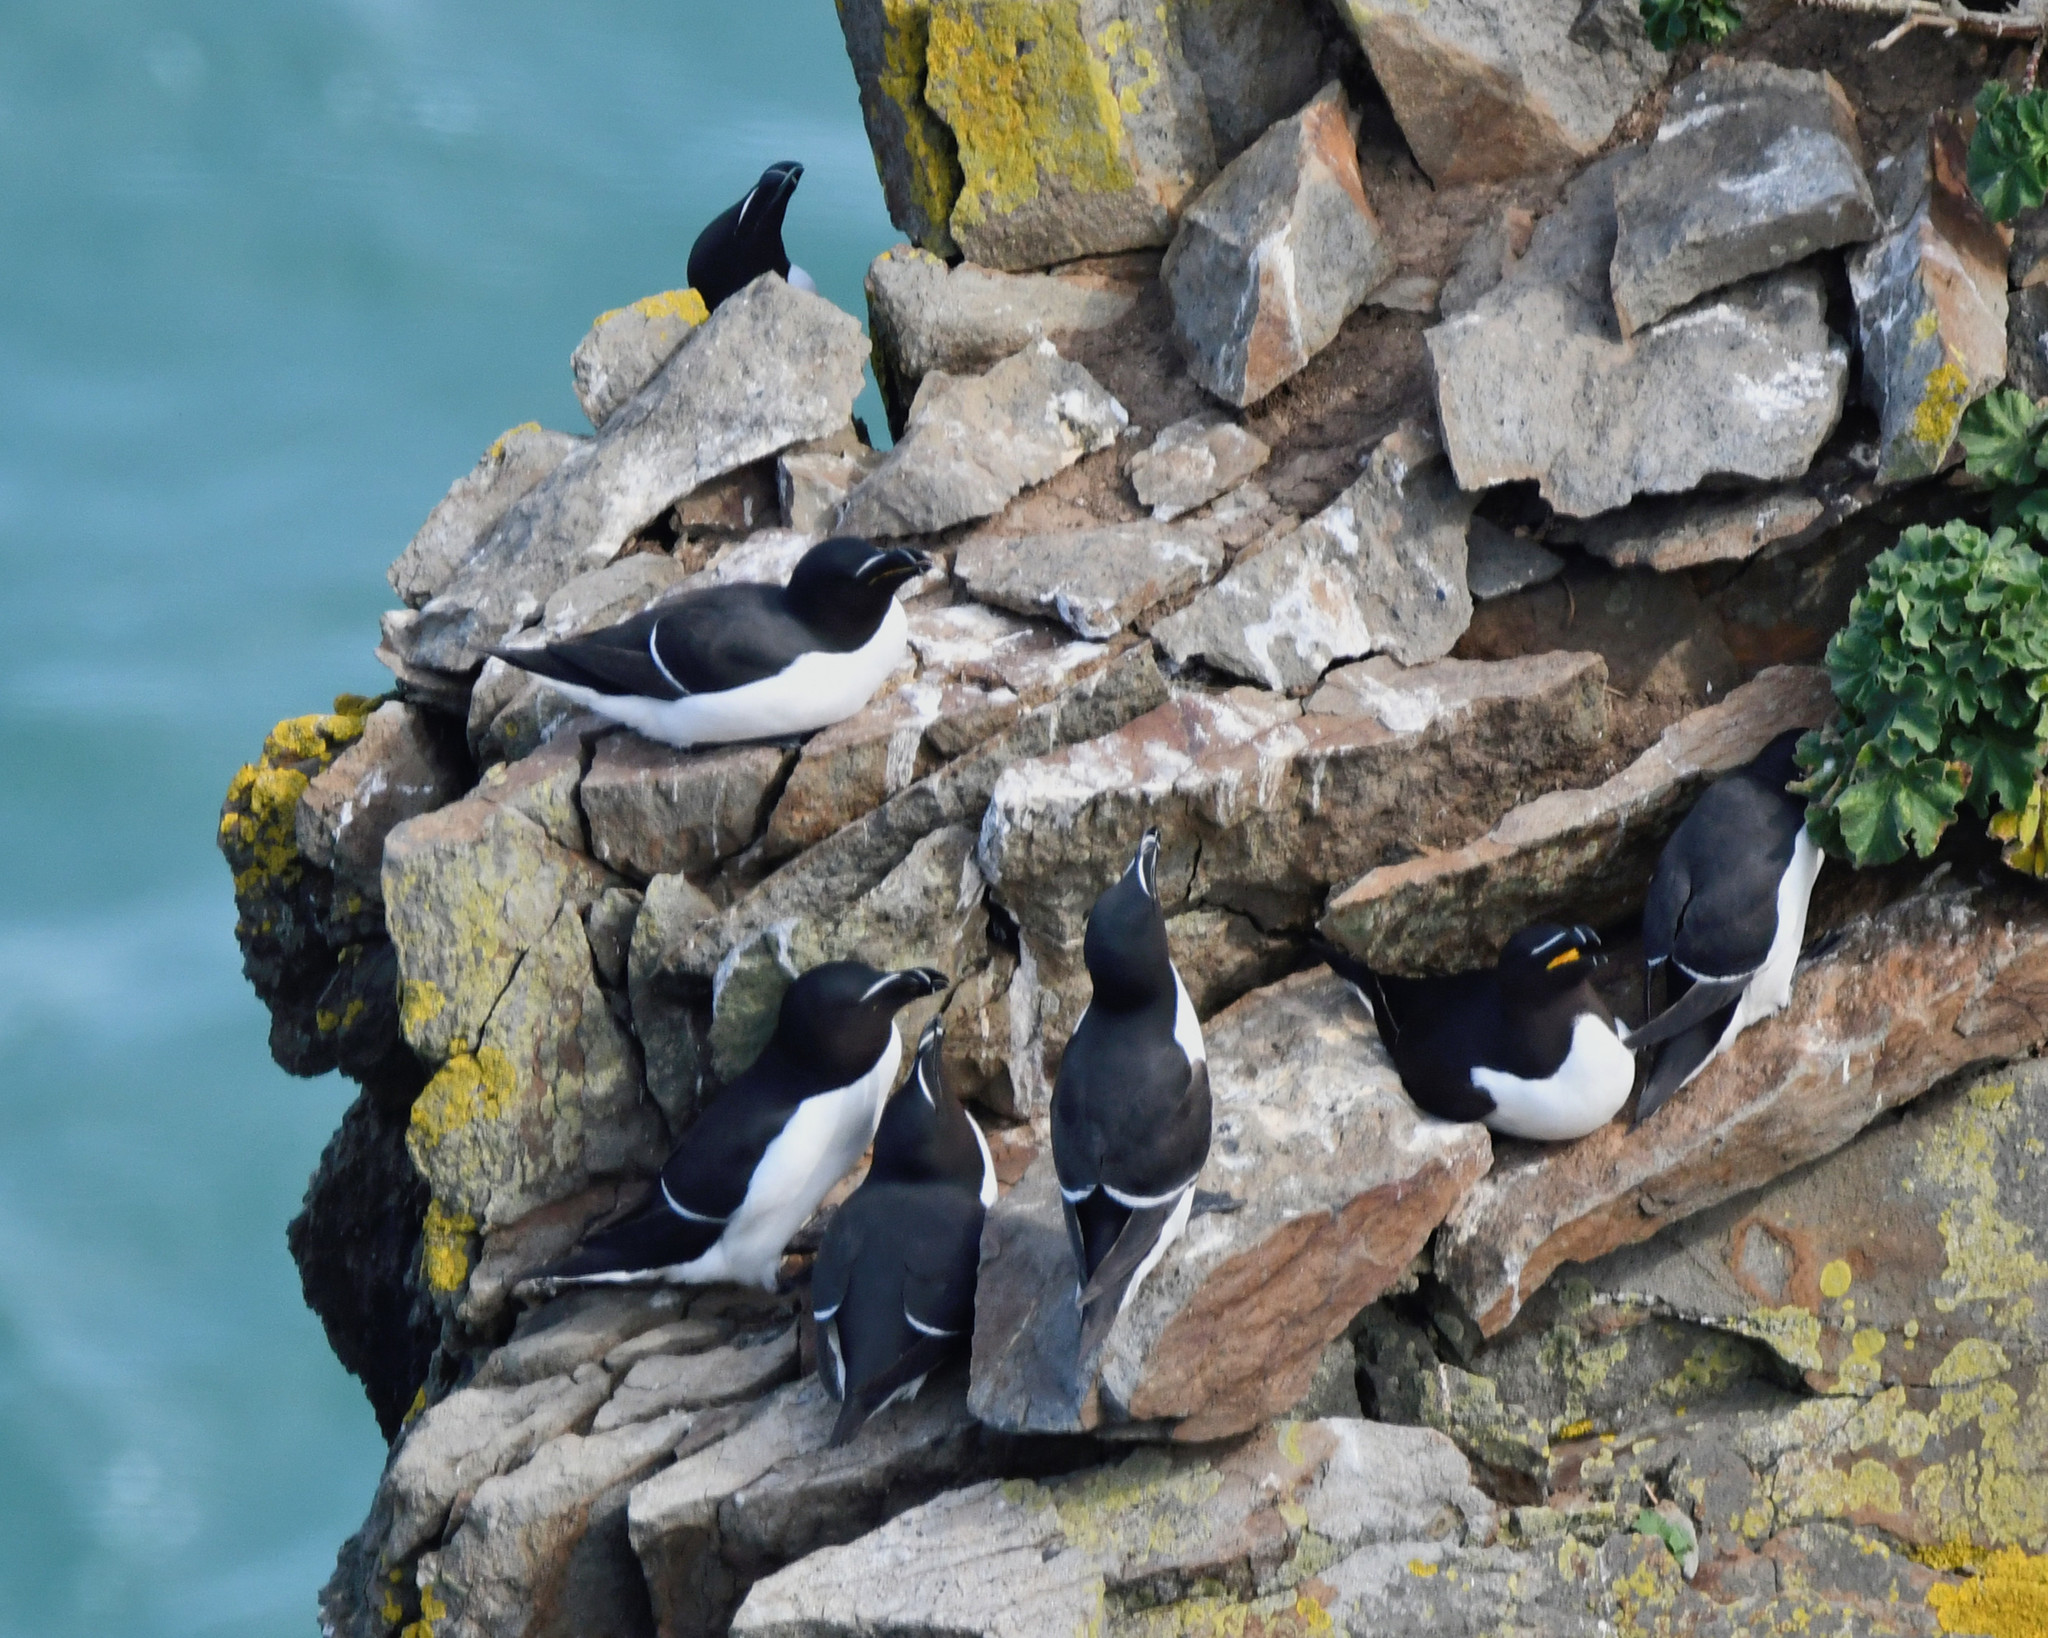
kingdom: Animalia
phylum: Chordata
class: Aves
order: Charadriiformes
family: Alcidae
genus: Alca
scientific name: Alca torda
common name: Razorbill
